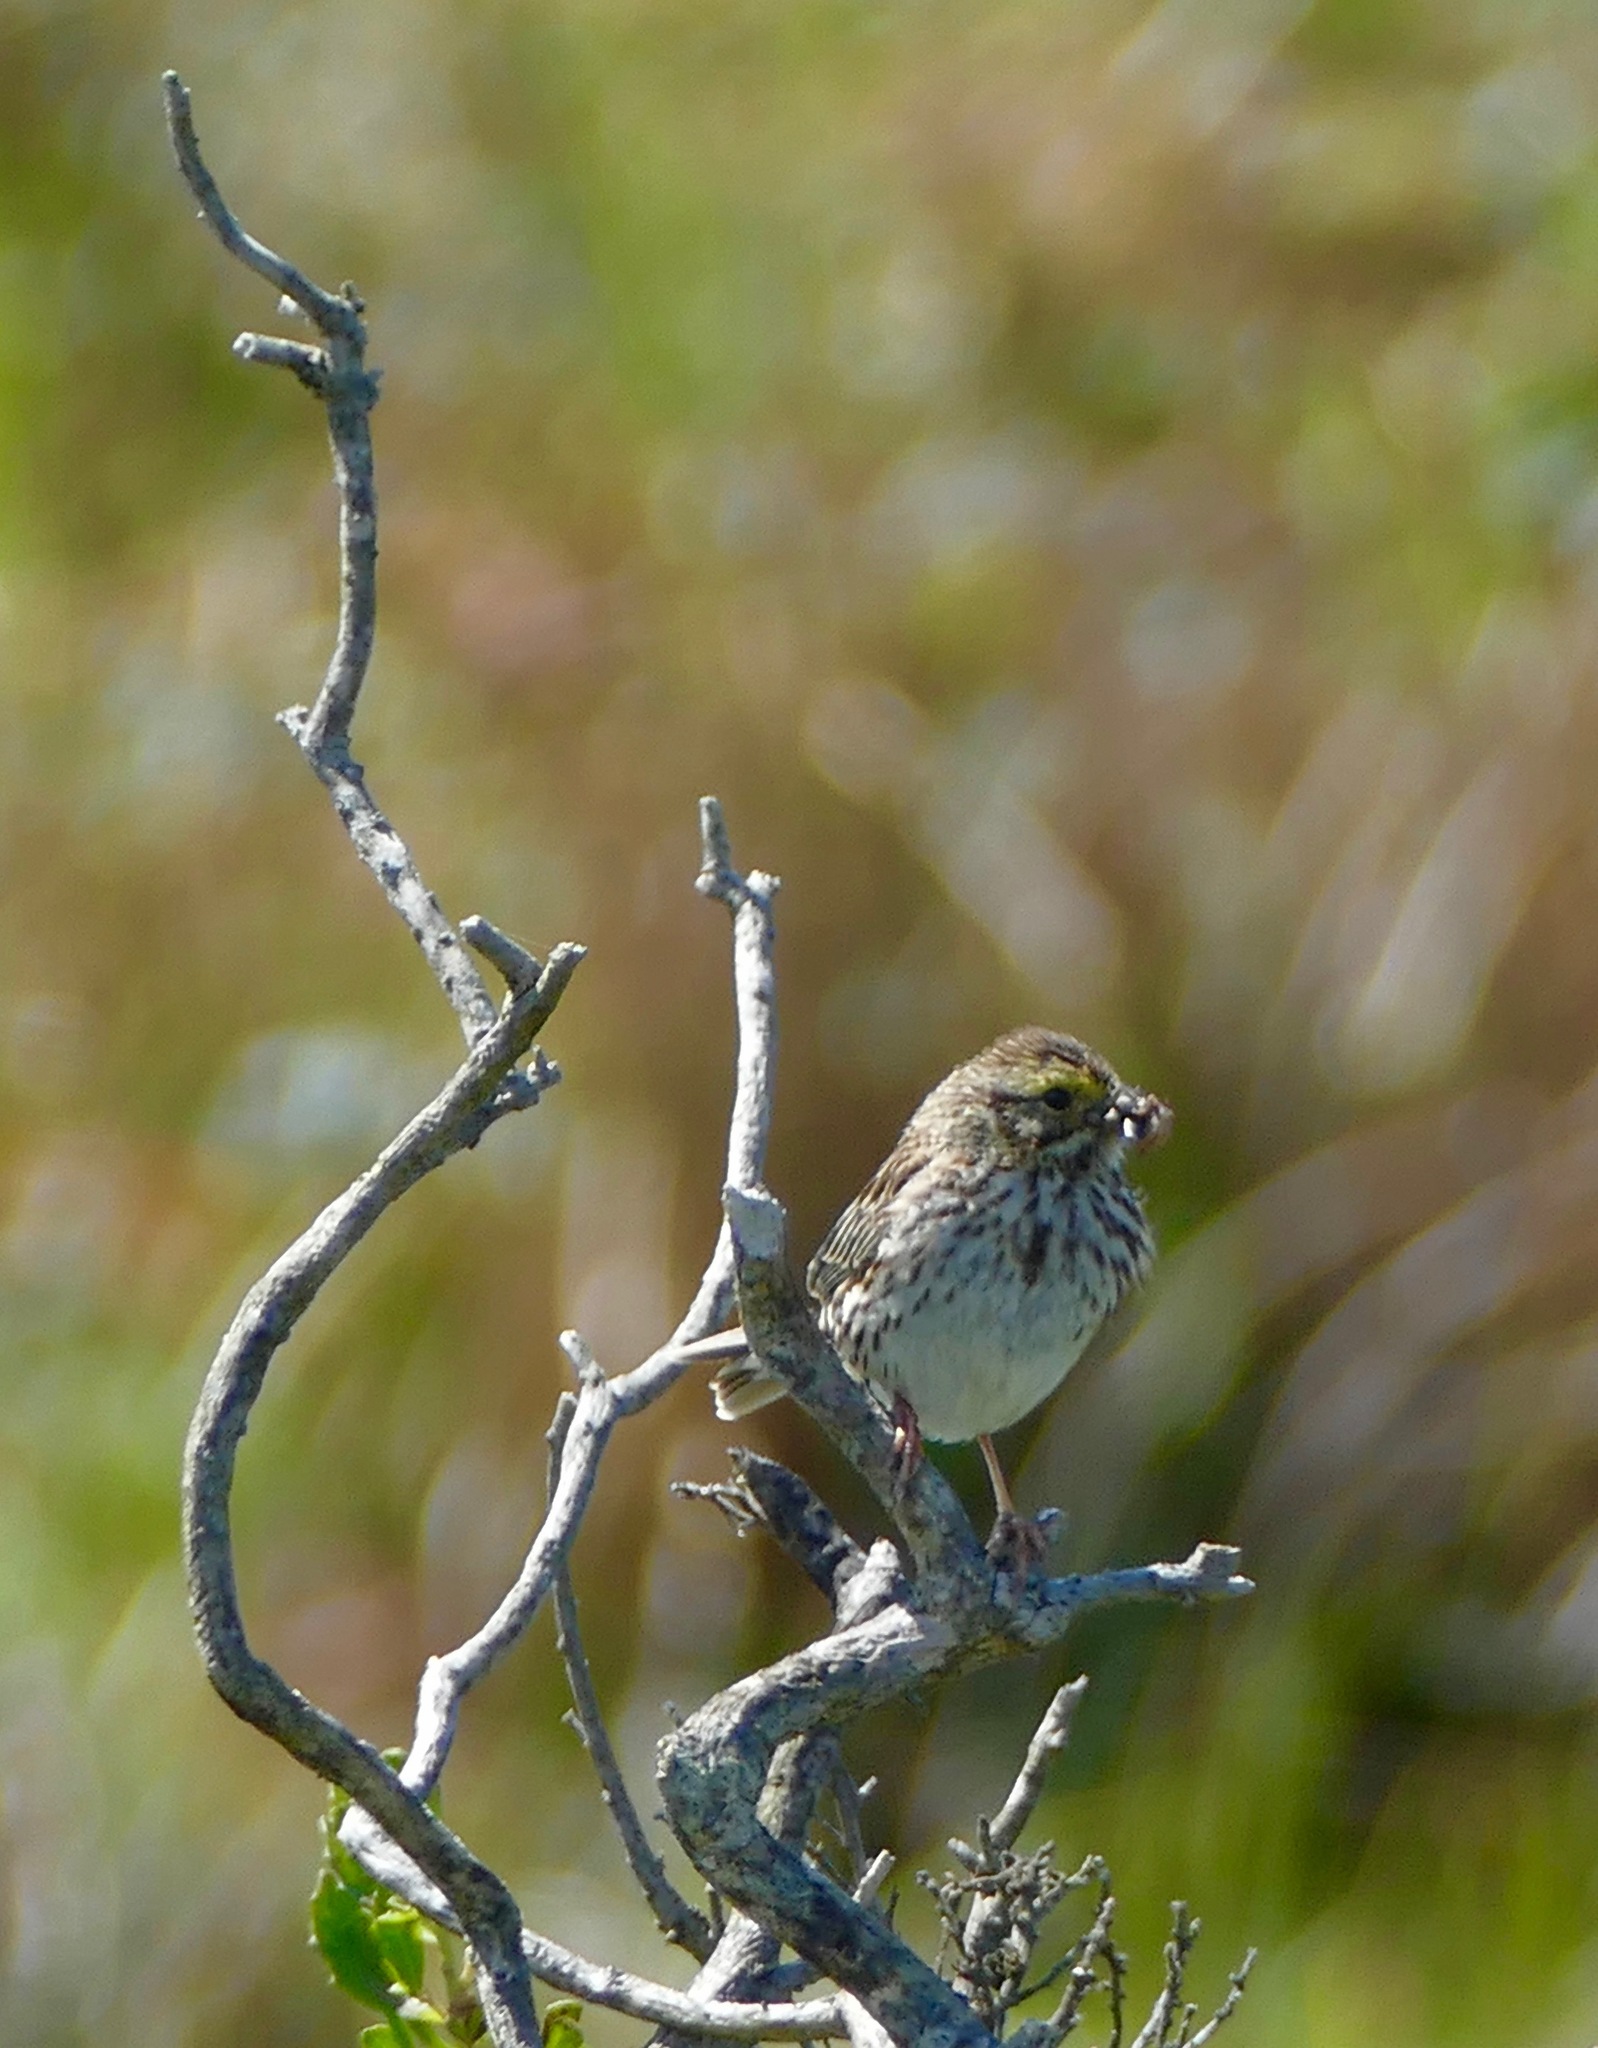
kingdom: Animalia
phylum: Chordata
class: Aves
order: Passeriformes
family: Passerellidae
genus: Passerculus
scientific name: Passerculus sandwichensis
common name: Savannah sparrow
